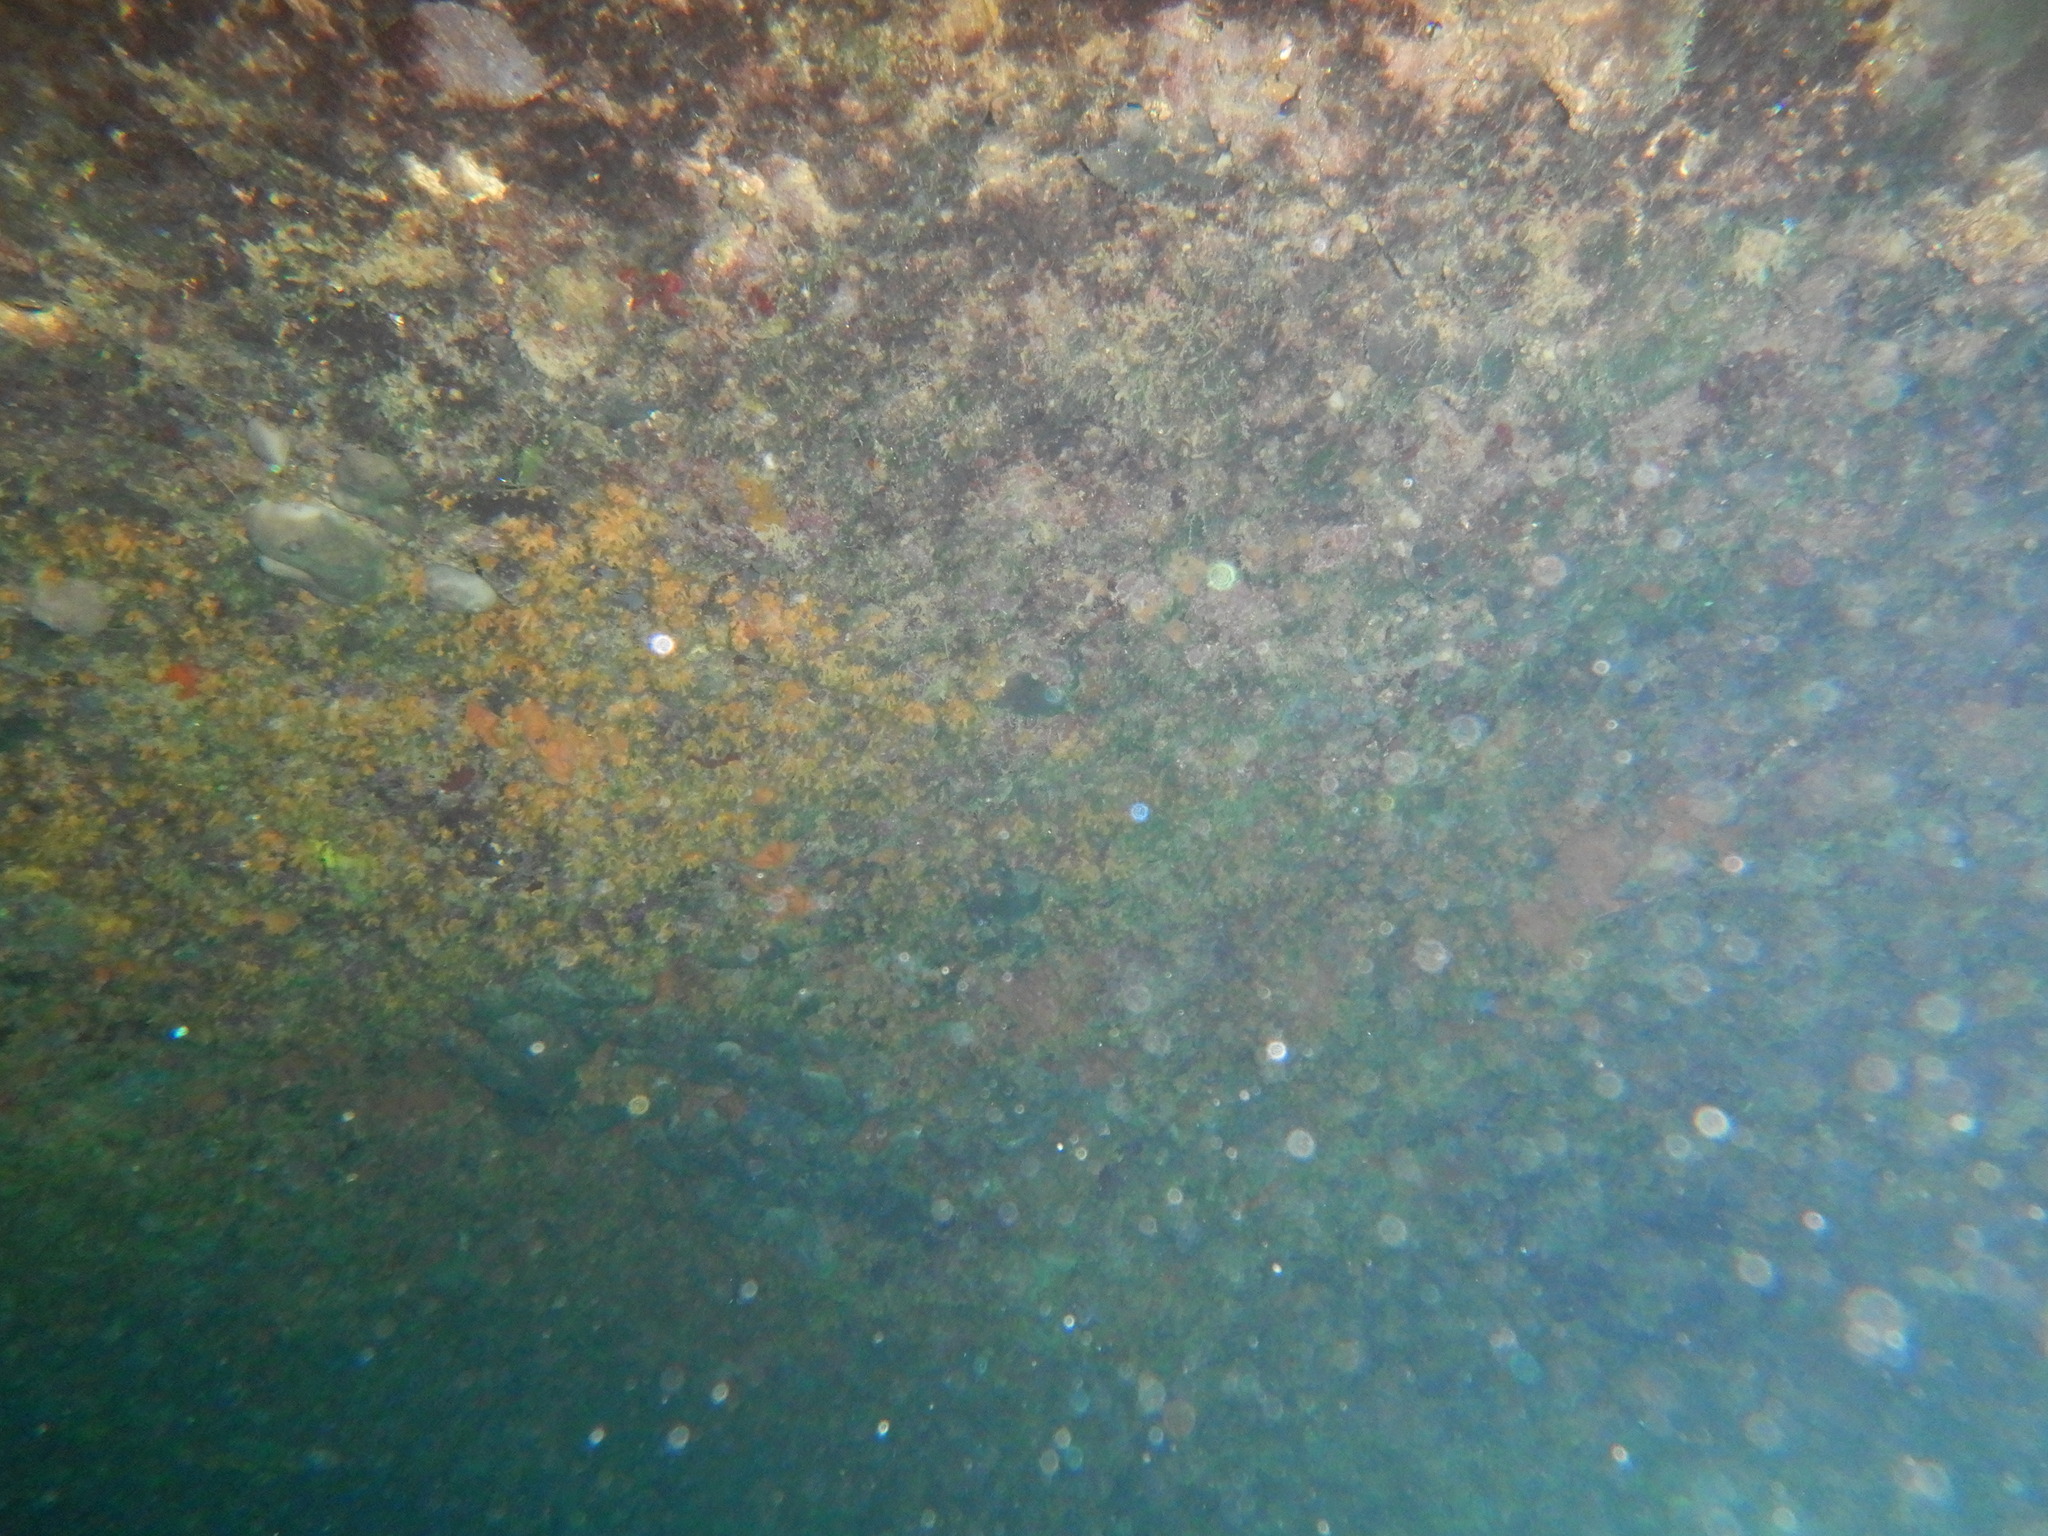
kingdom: Animalia
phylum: Cnidaria
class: Anthozoa
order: Zoantharia
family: Parazoanthidae
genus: Parazoanthus
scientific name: Parazoanthus axinellae
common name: Yellow cluster anemone
